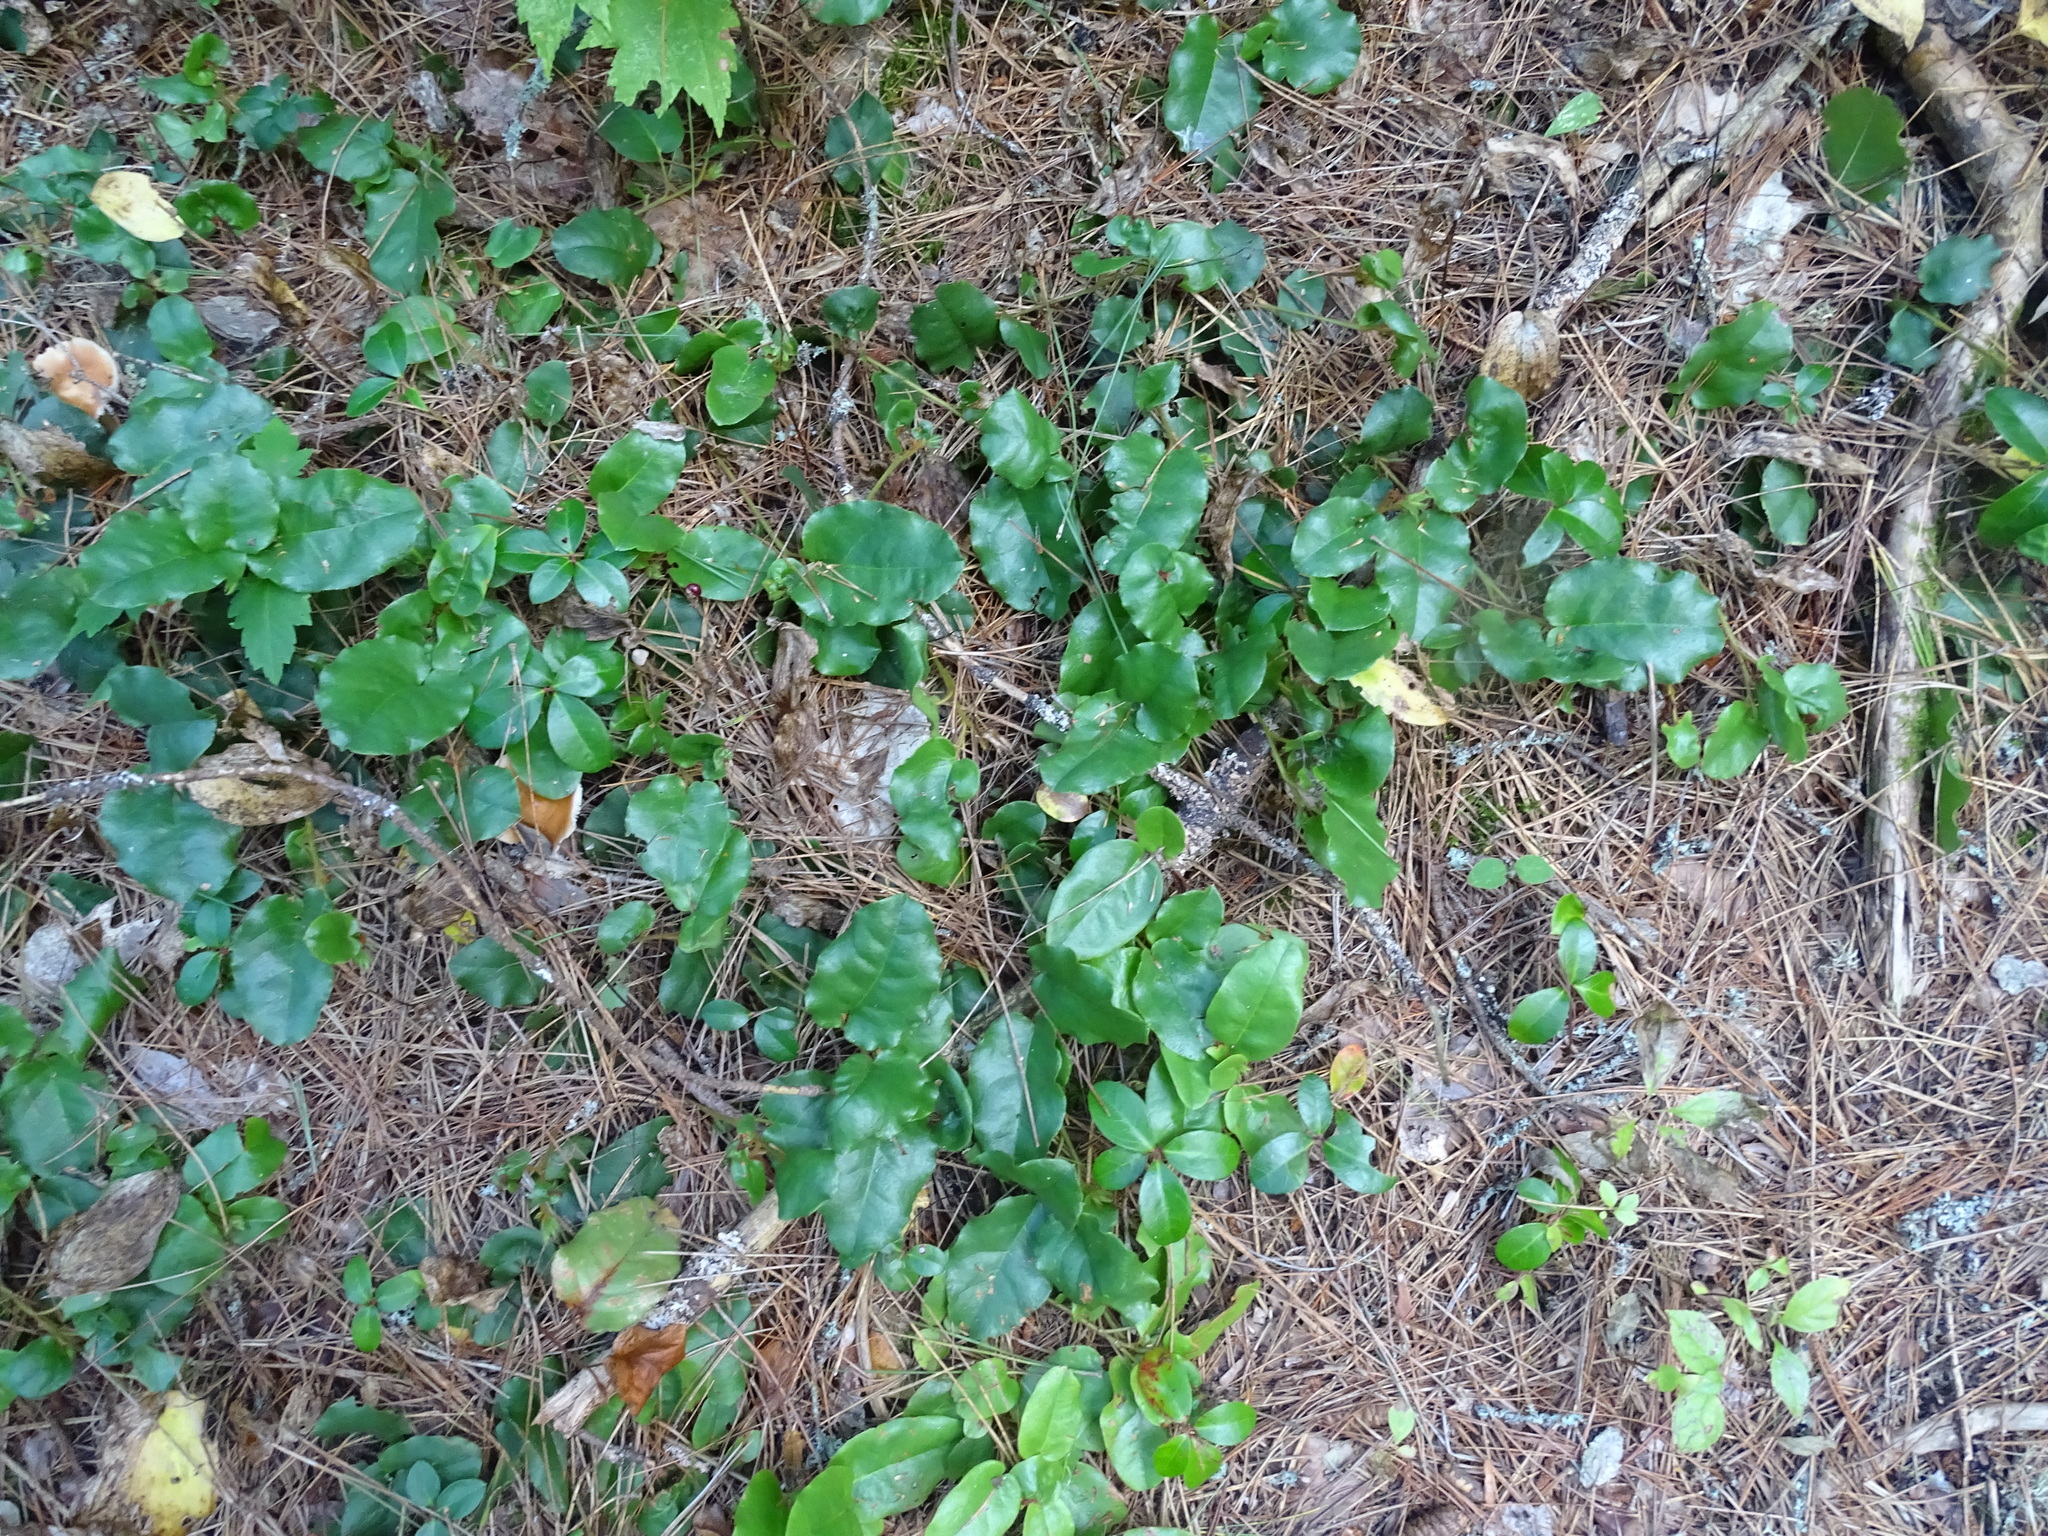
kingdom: Plantae
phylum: Tracheophyta
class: Magnoliopsida
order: Ericales
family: Ericaceae
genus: Epigaea
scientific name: Epigaea repens
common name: Gravelroot
